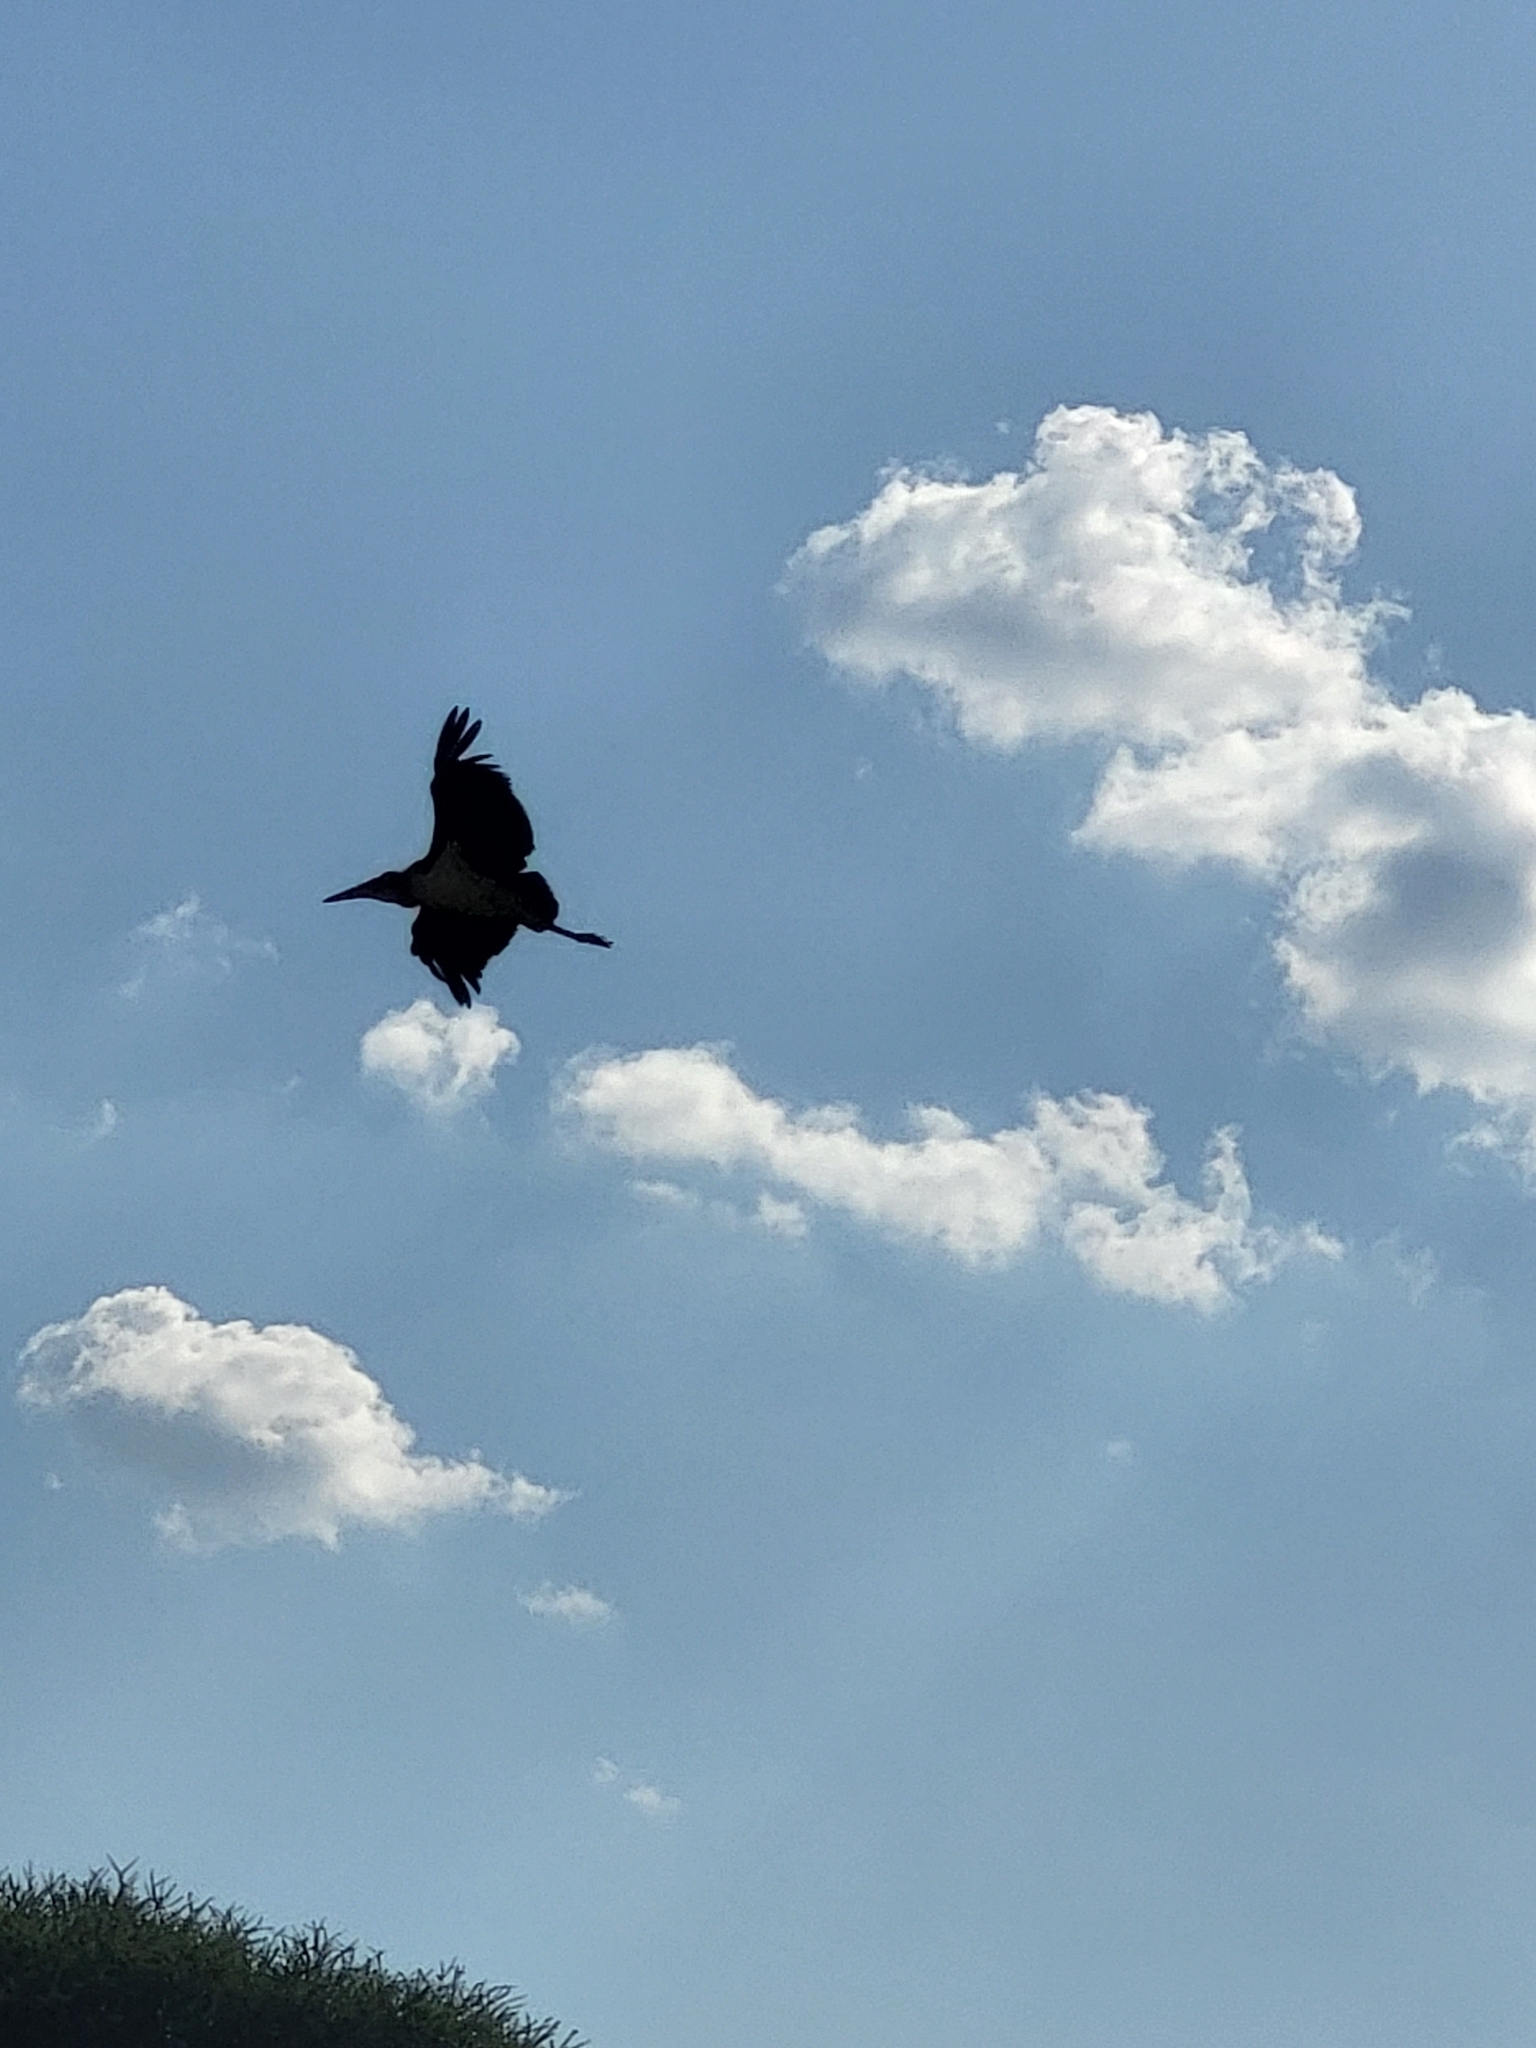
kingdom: Animalia
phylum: Chordata
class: Aves
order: Ciconiiformes
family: Ciconiidae
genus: Leptoptilos
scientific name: Leptoptilos crumenifer
